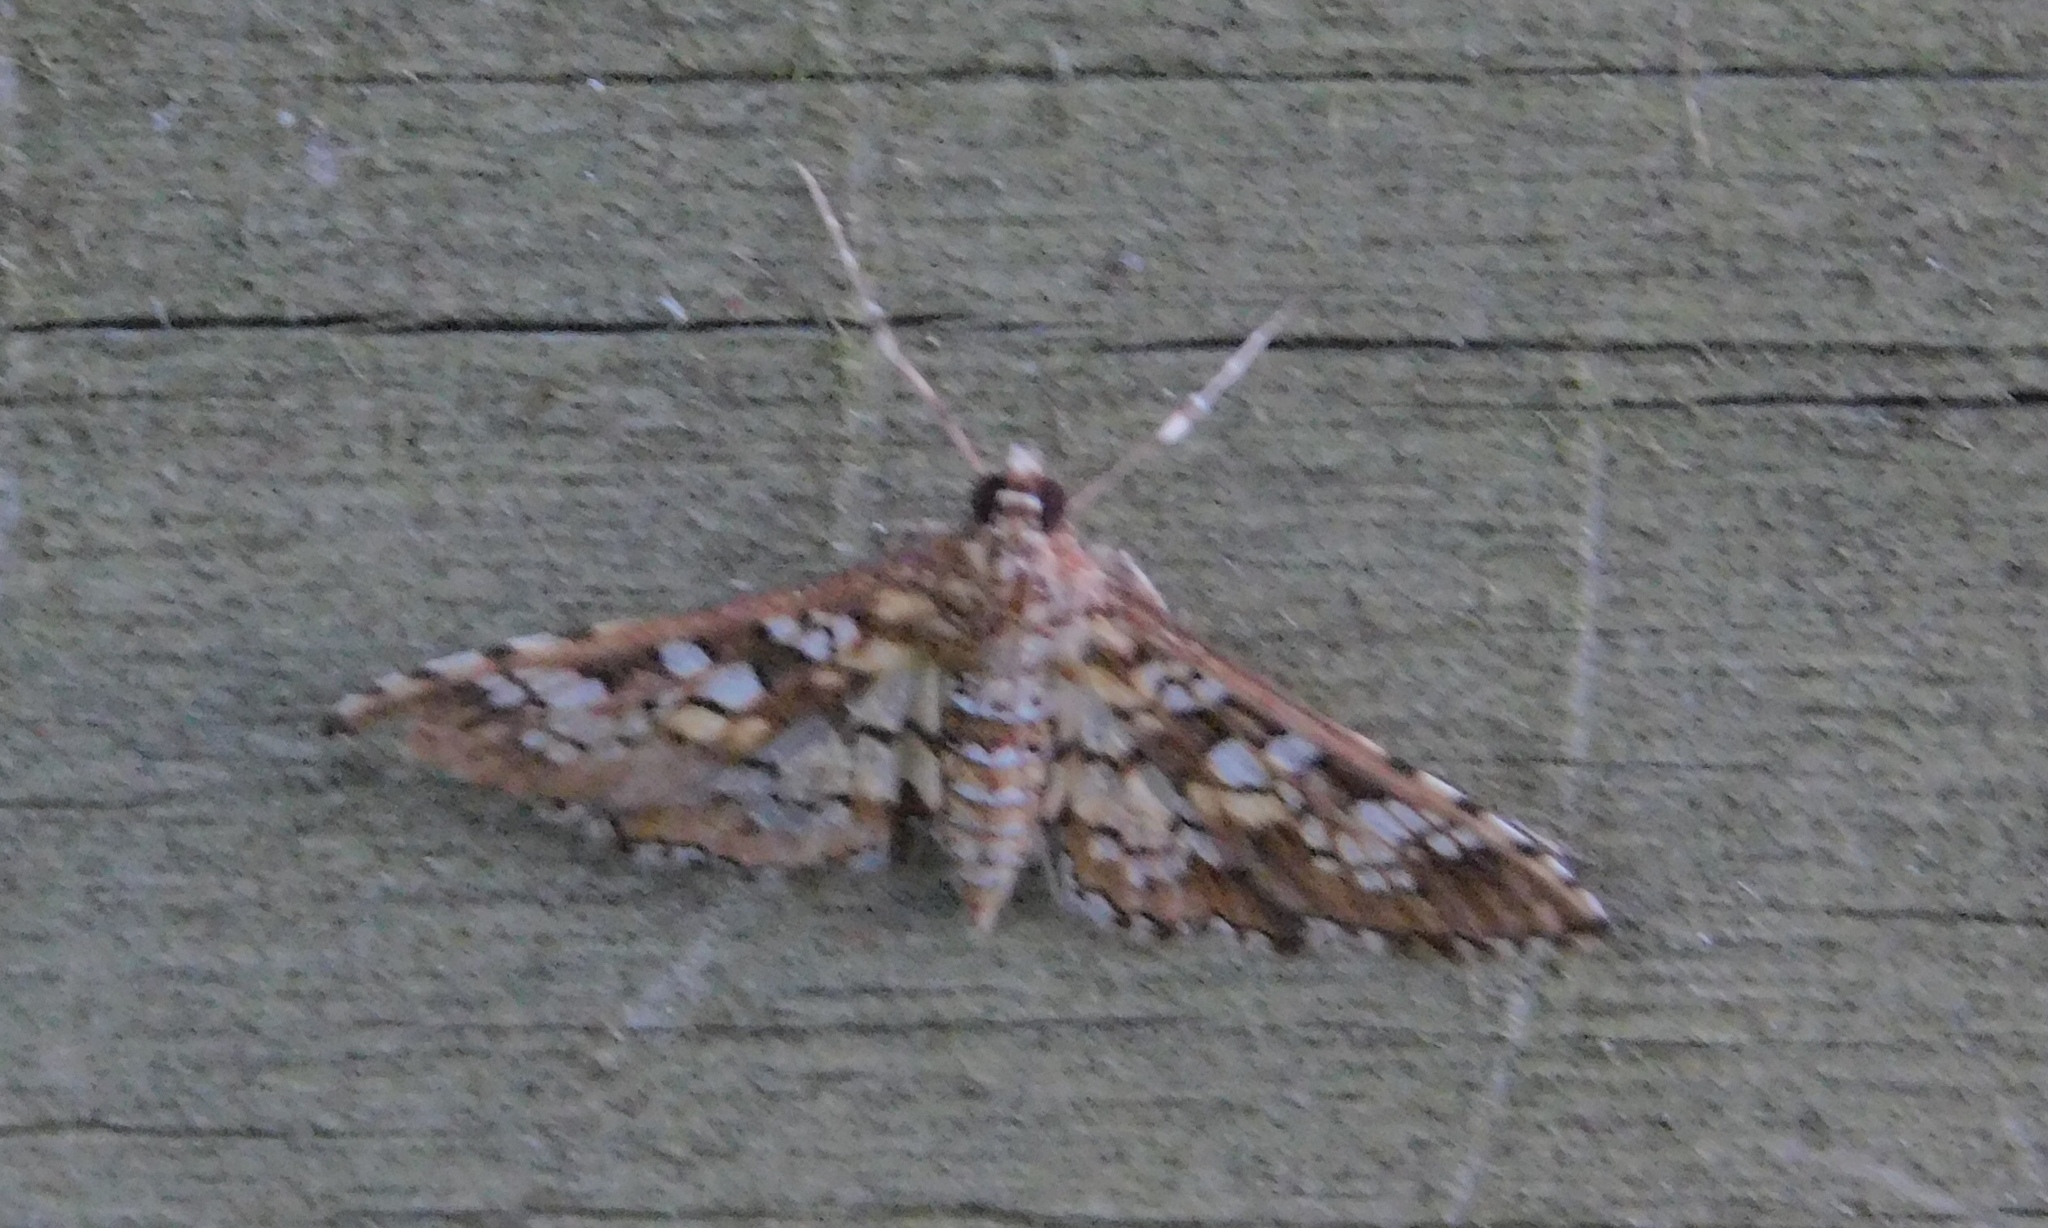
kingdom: Animalia
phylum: Arthropoda
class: Insecta
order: Lepidoptera
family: Crambidae
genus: Samea
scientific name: Samea ecclesialis
